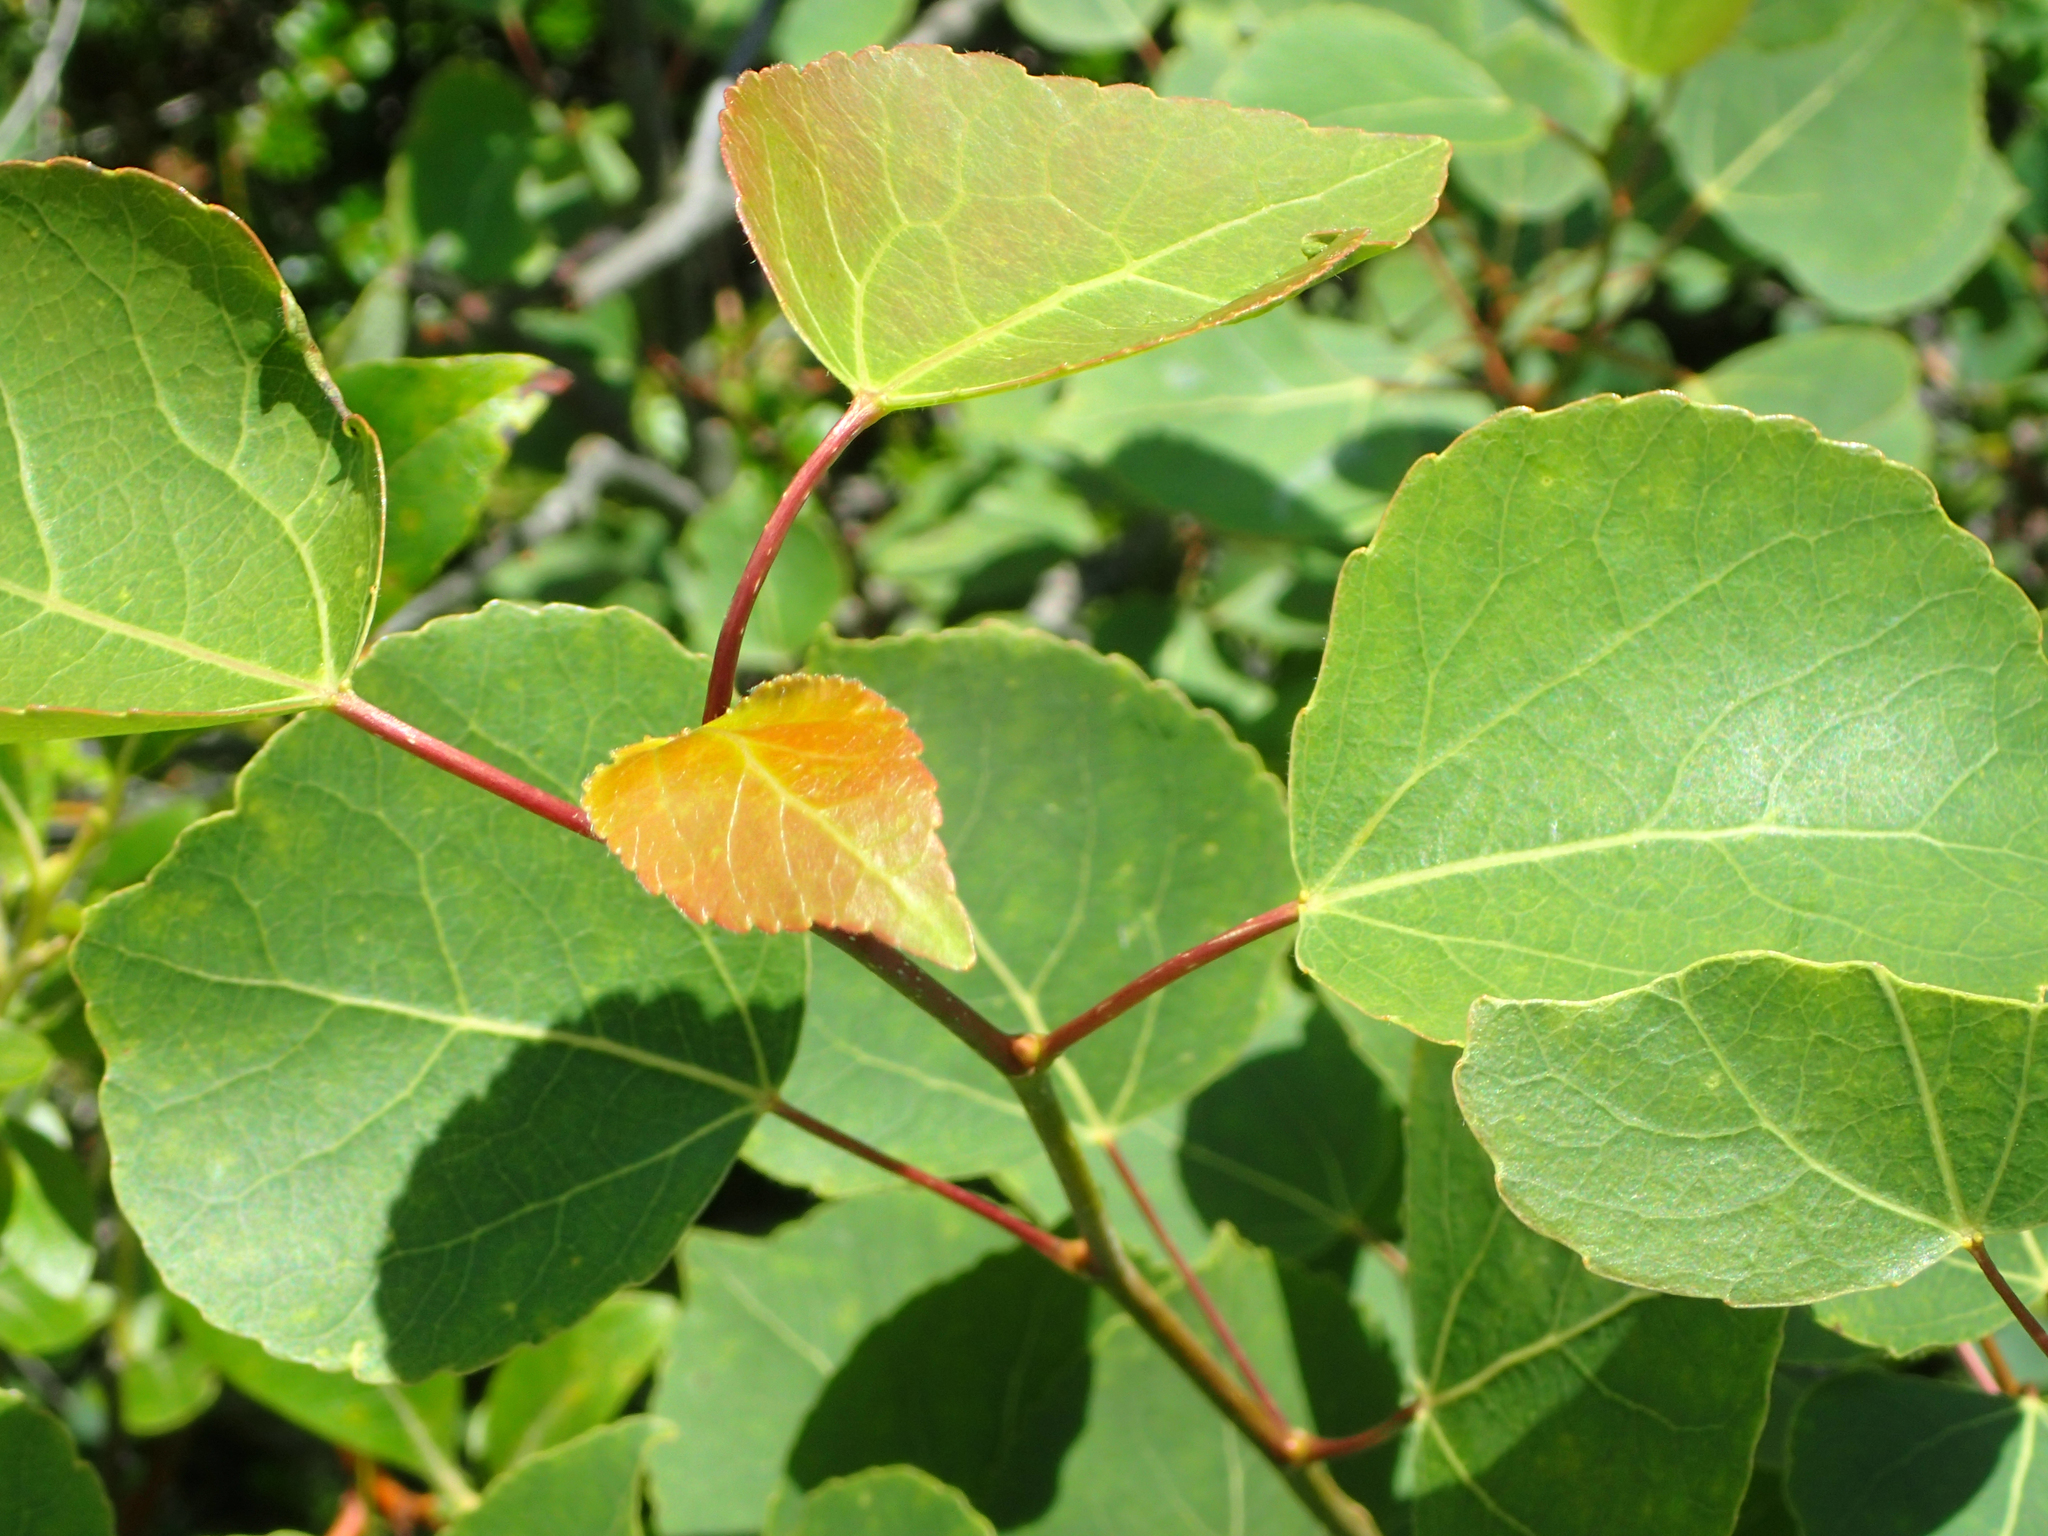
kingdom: Plantae
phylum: Tracheophyta
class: Magnoliopsida
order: Malpighiales
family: Salicaceae
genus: Populus
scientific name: Populus tremuloides
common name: Quaking aspen
